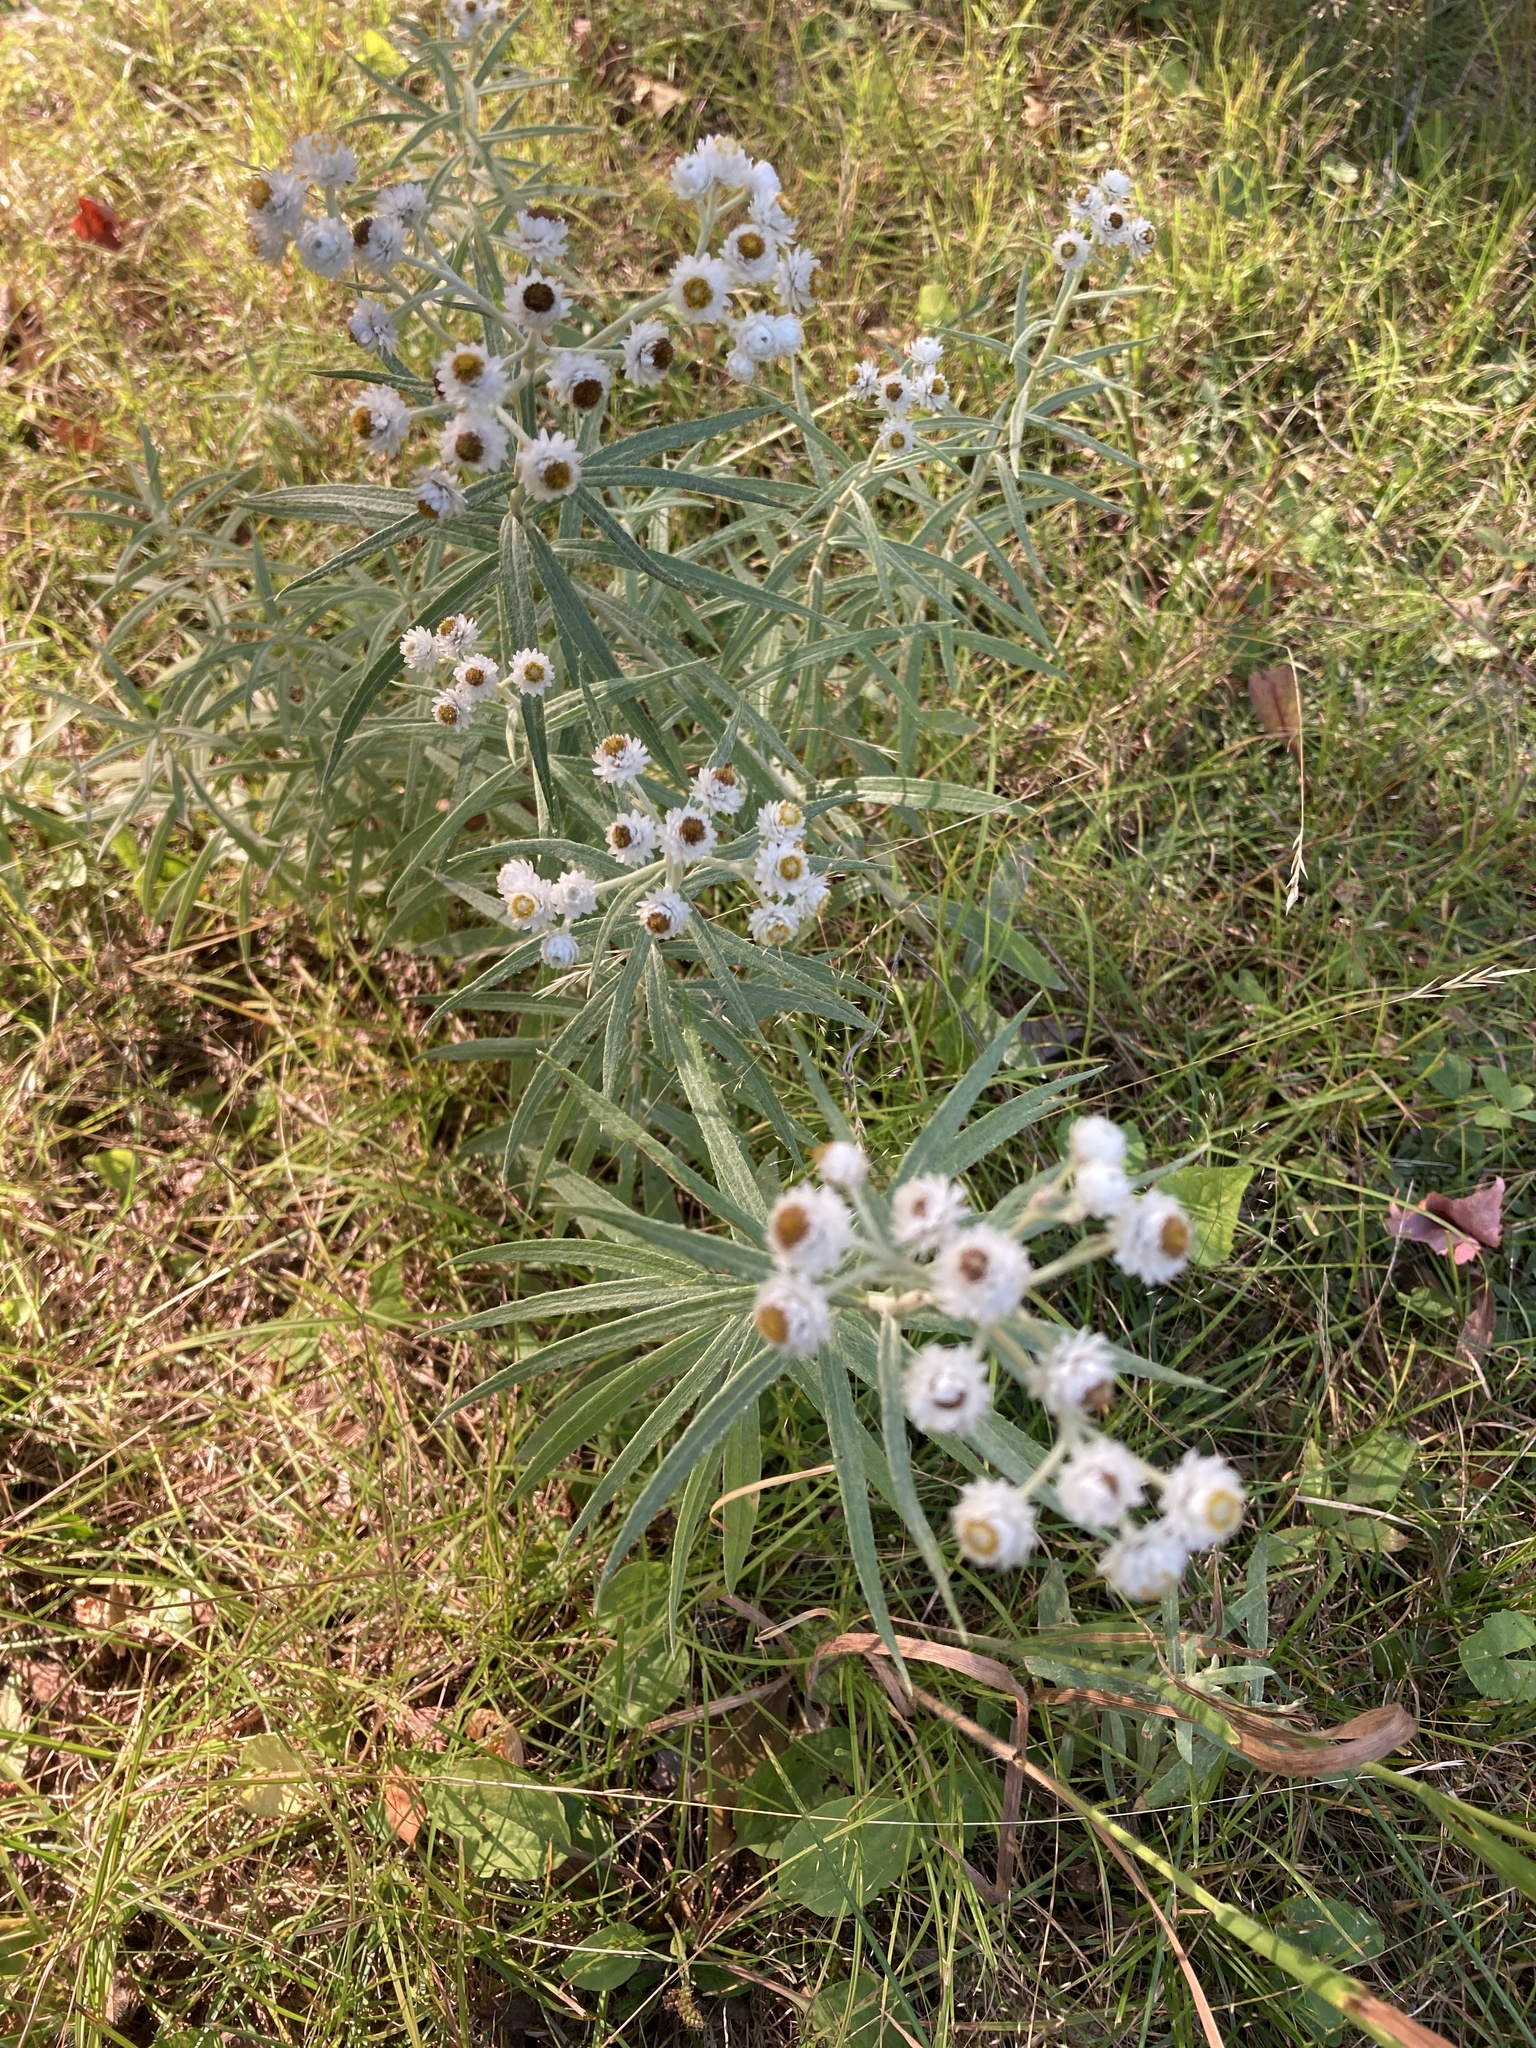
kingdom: Plantae
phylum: Tracheophyta
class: Magnoliopsida
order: Asterales
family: Asteraceae
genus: Anaphalis
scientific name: Anaphalis margaritacea
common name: Pearly everlasting
